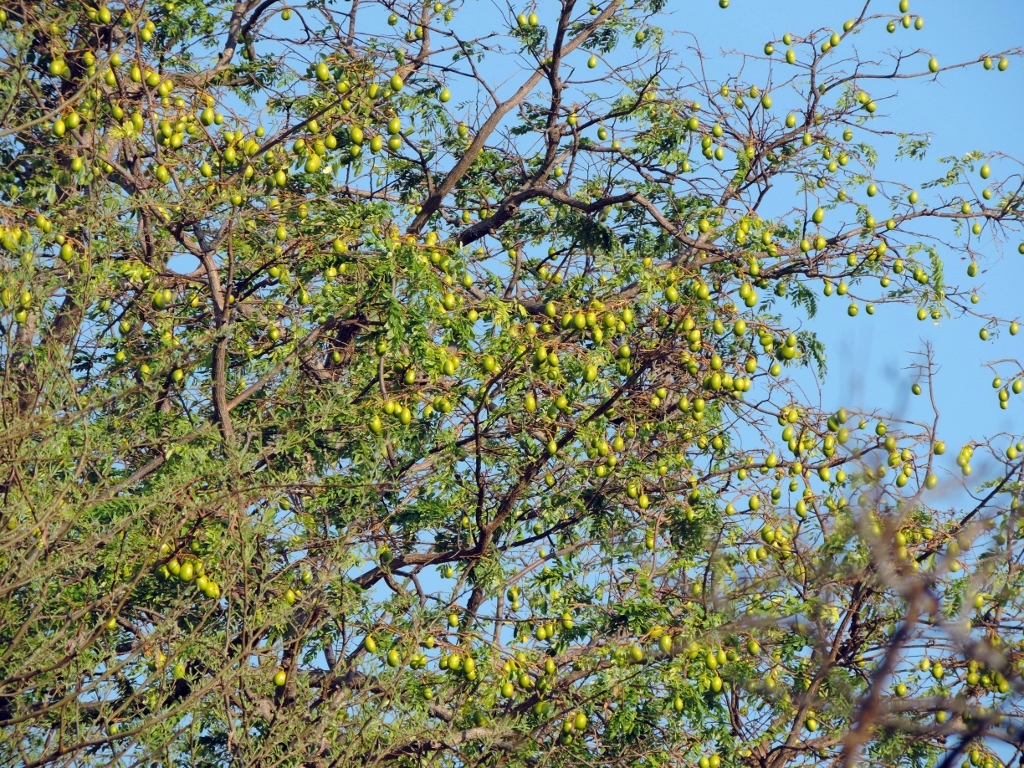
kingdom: Plantae
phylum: Tracheophyta
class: Magnoliopsida
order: Fabales
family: Fabaceae
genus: Cordyla
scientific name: Cordyla africana
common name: Wild mango
